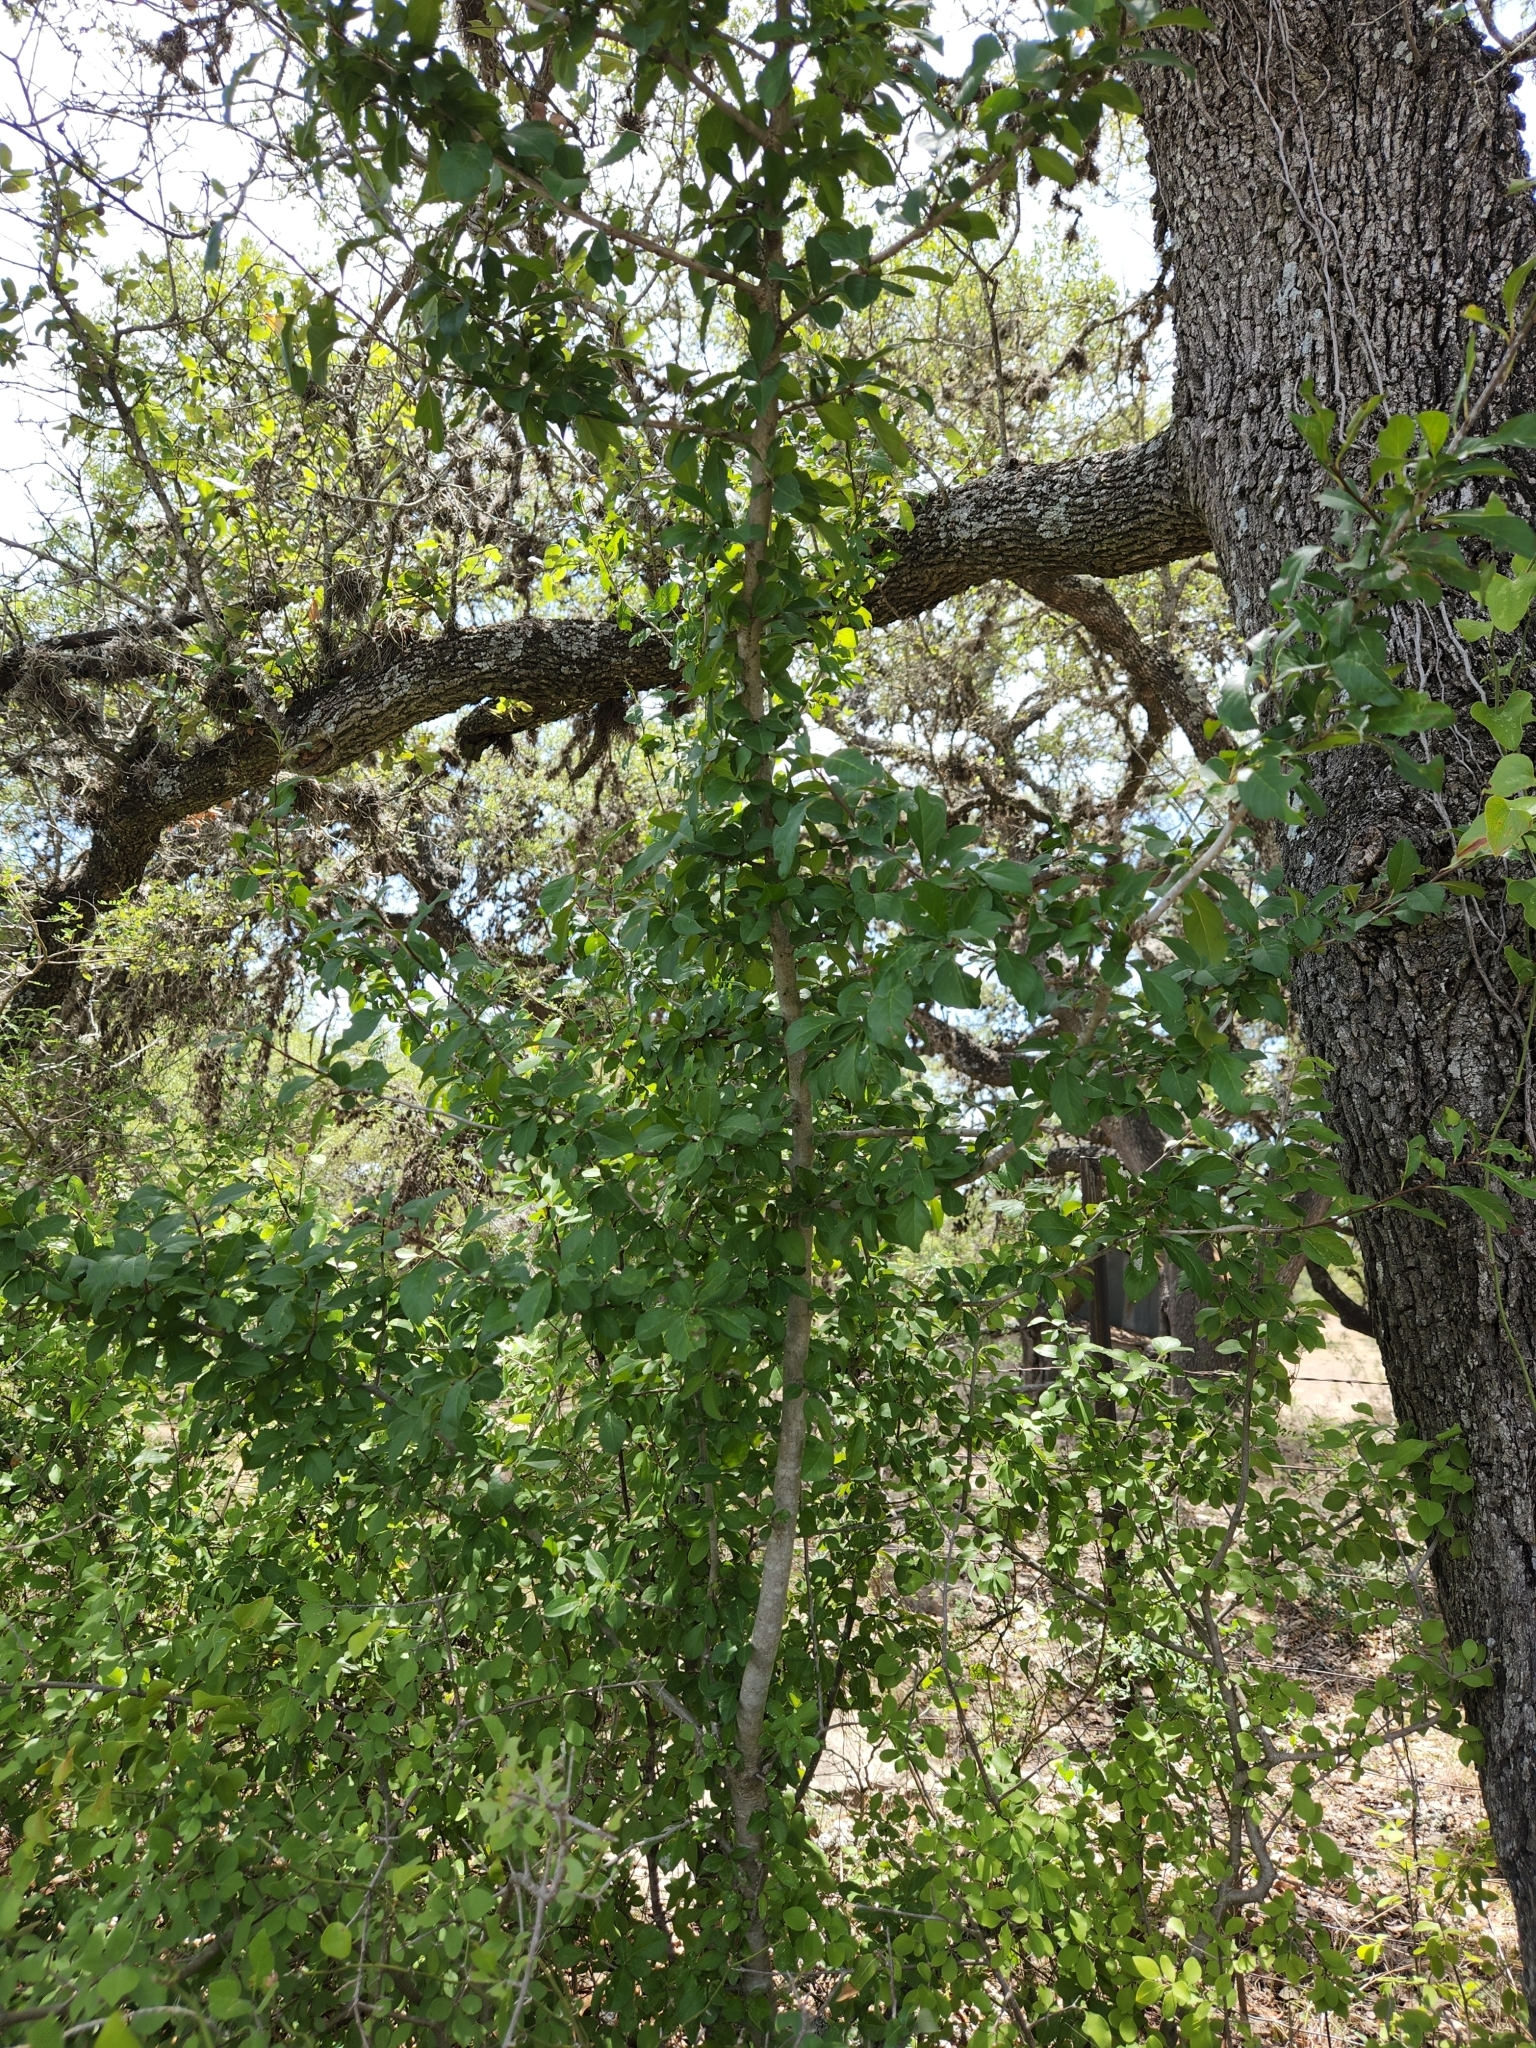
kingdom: Plantae
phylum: Tracheophyta
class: Magnoliopsida
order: Aquifoliales
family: Aquifoliaceae
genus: Ilex
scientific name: Ilex decidua
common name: Possum-haw
